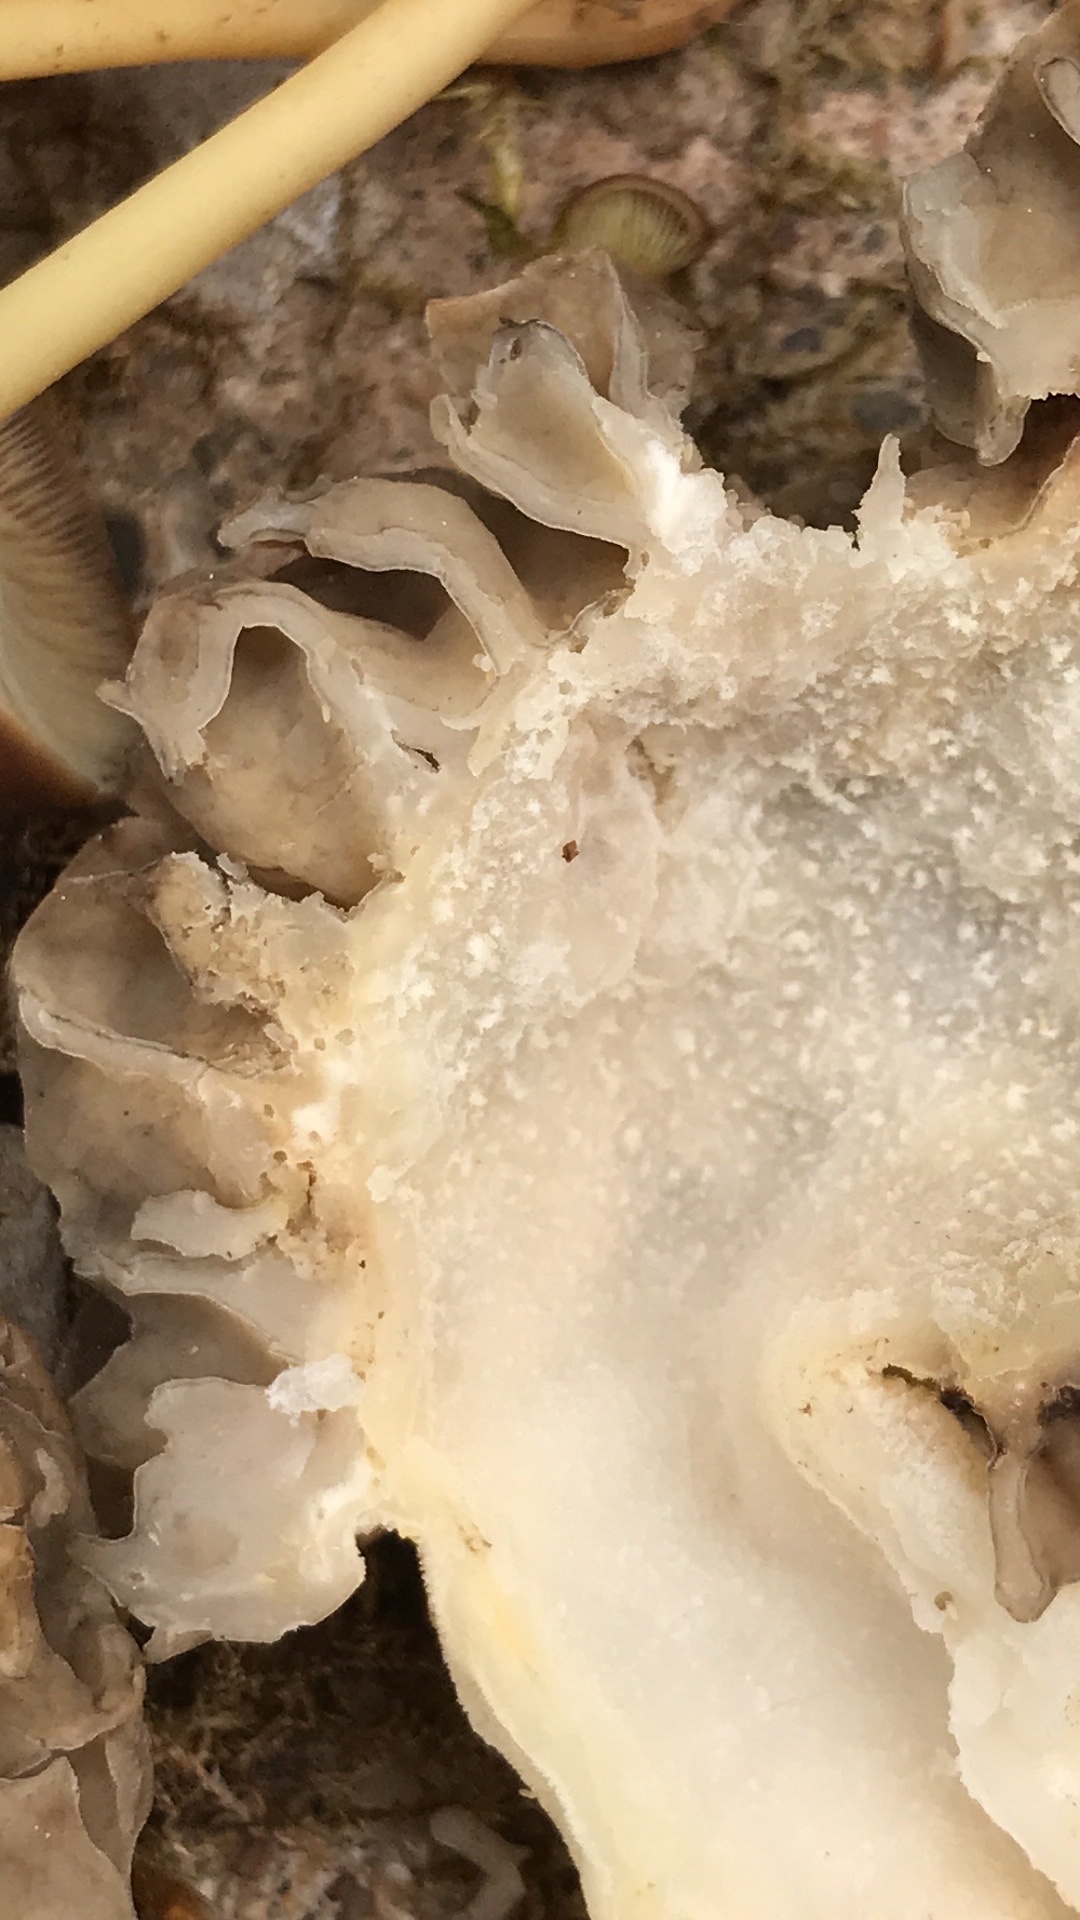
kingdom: Fungi
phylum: Ascomycota
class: Pezizomycetes
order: Pezizales
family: Morchellaceae
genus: Morchella
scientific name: Morchella vulgaris
